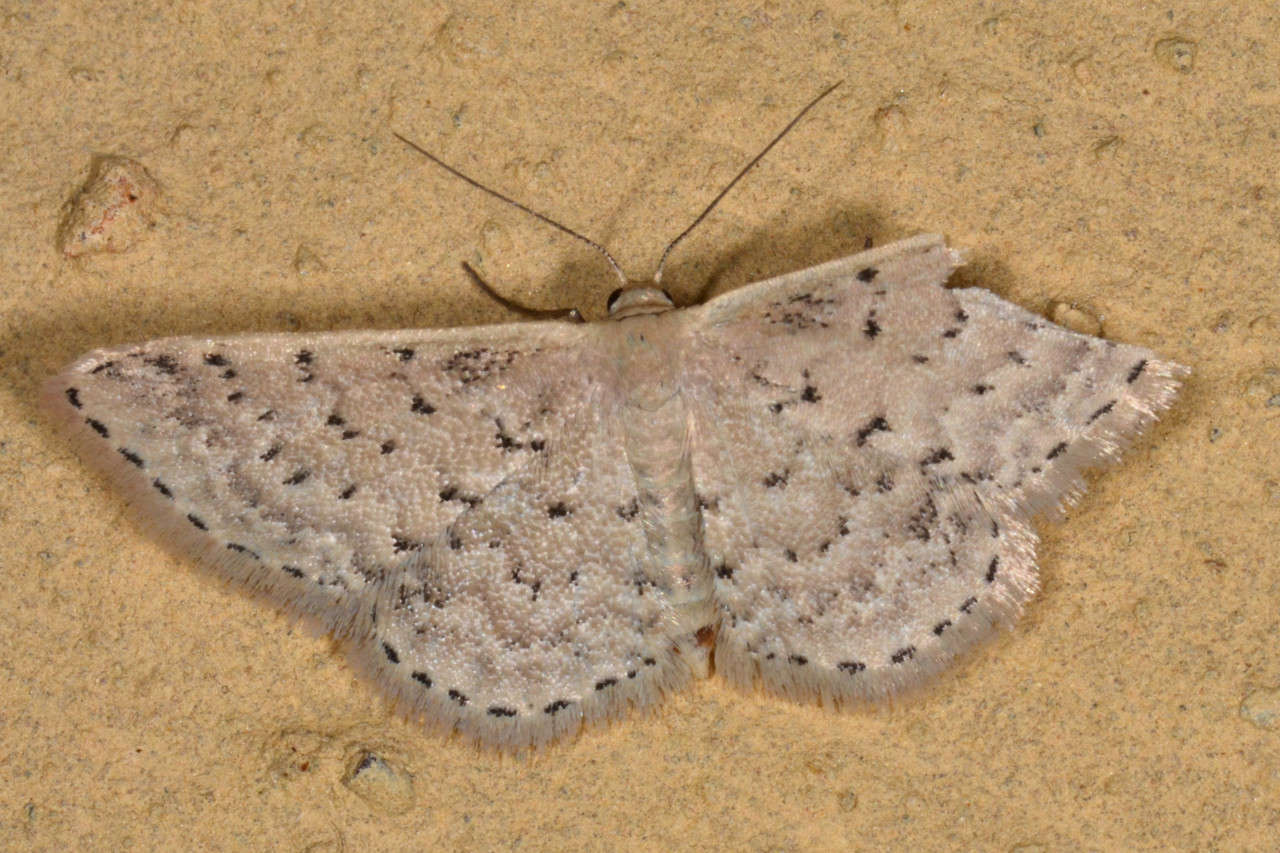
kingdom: Animalia
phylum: Arthropoda
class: Insecta
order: Lepidoptera
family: Geometridae
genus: Idaea
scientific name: Idaea philocosma
